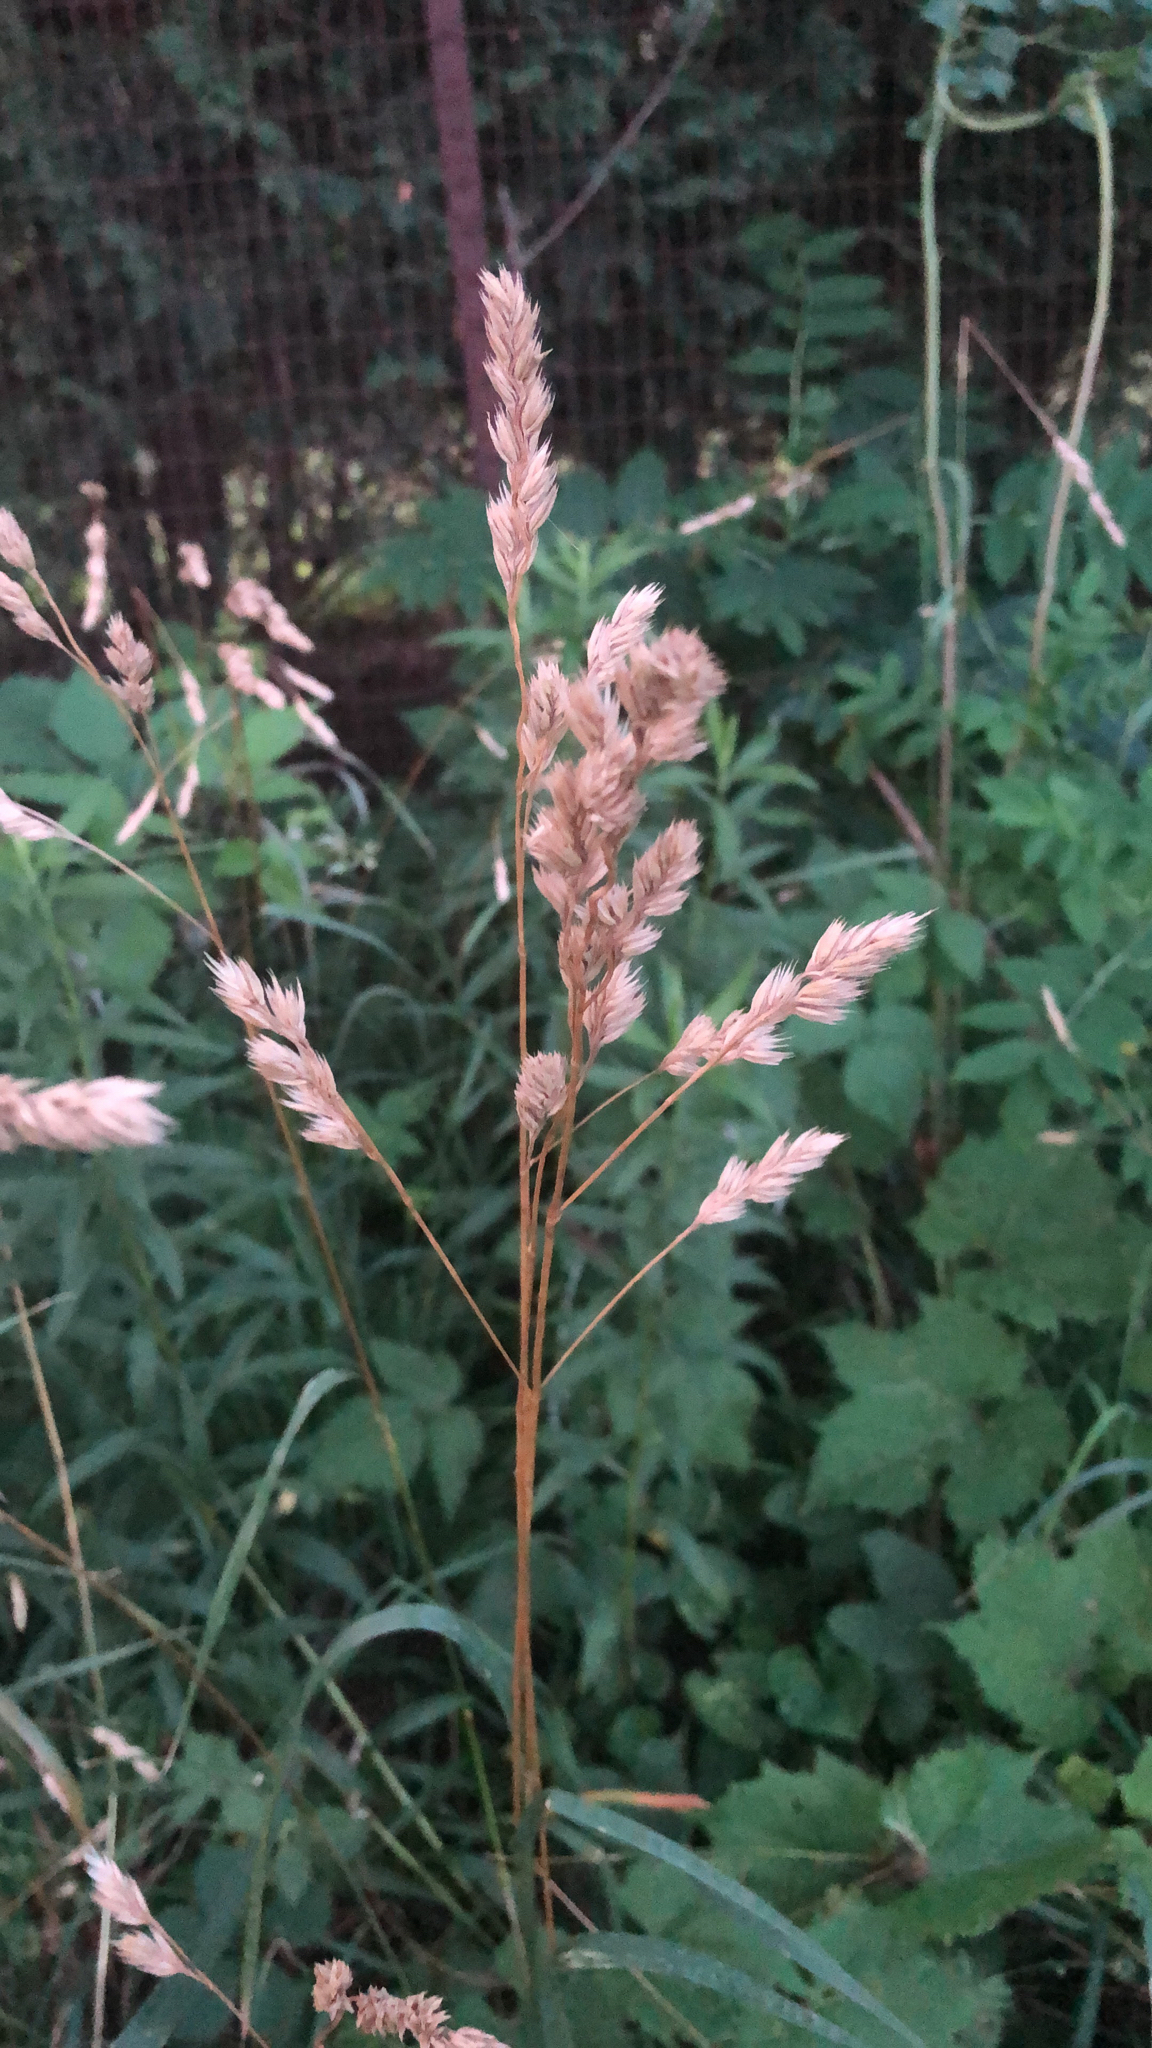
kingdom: Plantae
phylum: Tracheophyta
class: Liliopsida
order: Poales
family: Poaceae
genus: Dactylis
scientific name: Dactylis glomerata
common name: Orchardgrass
